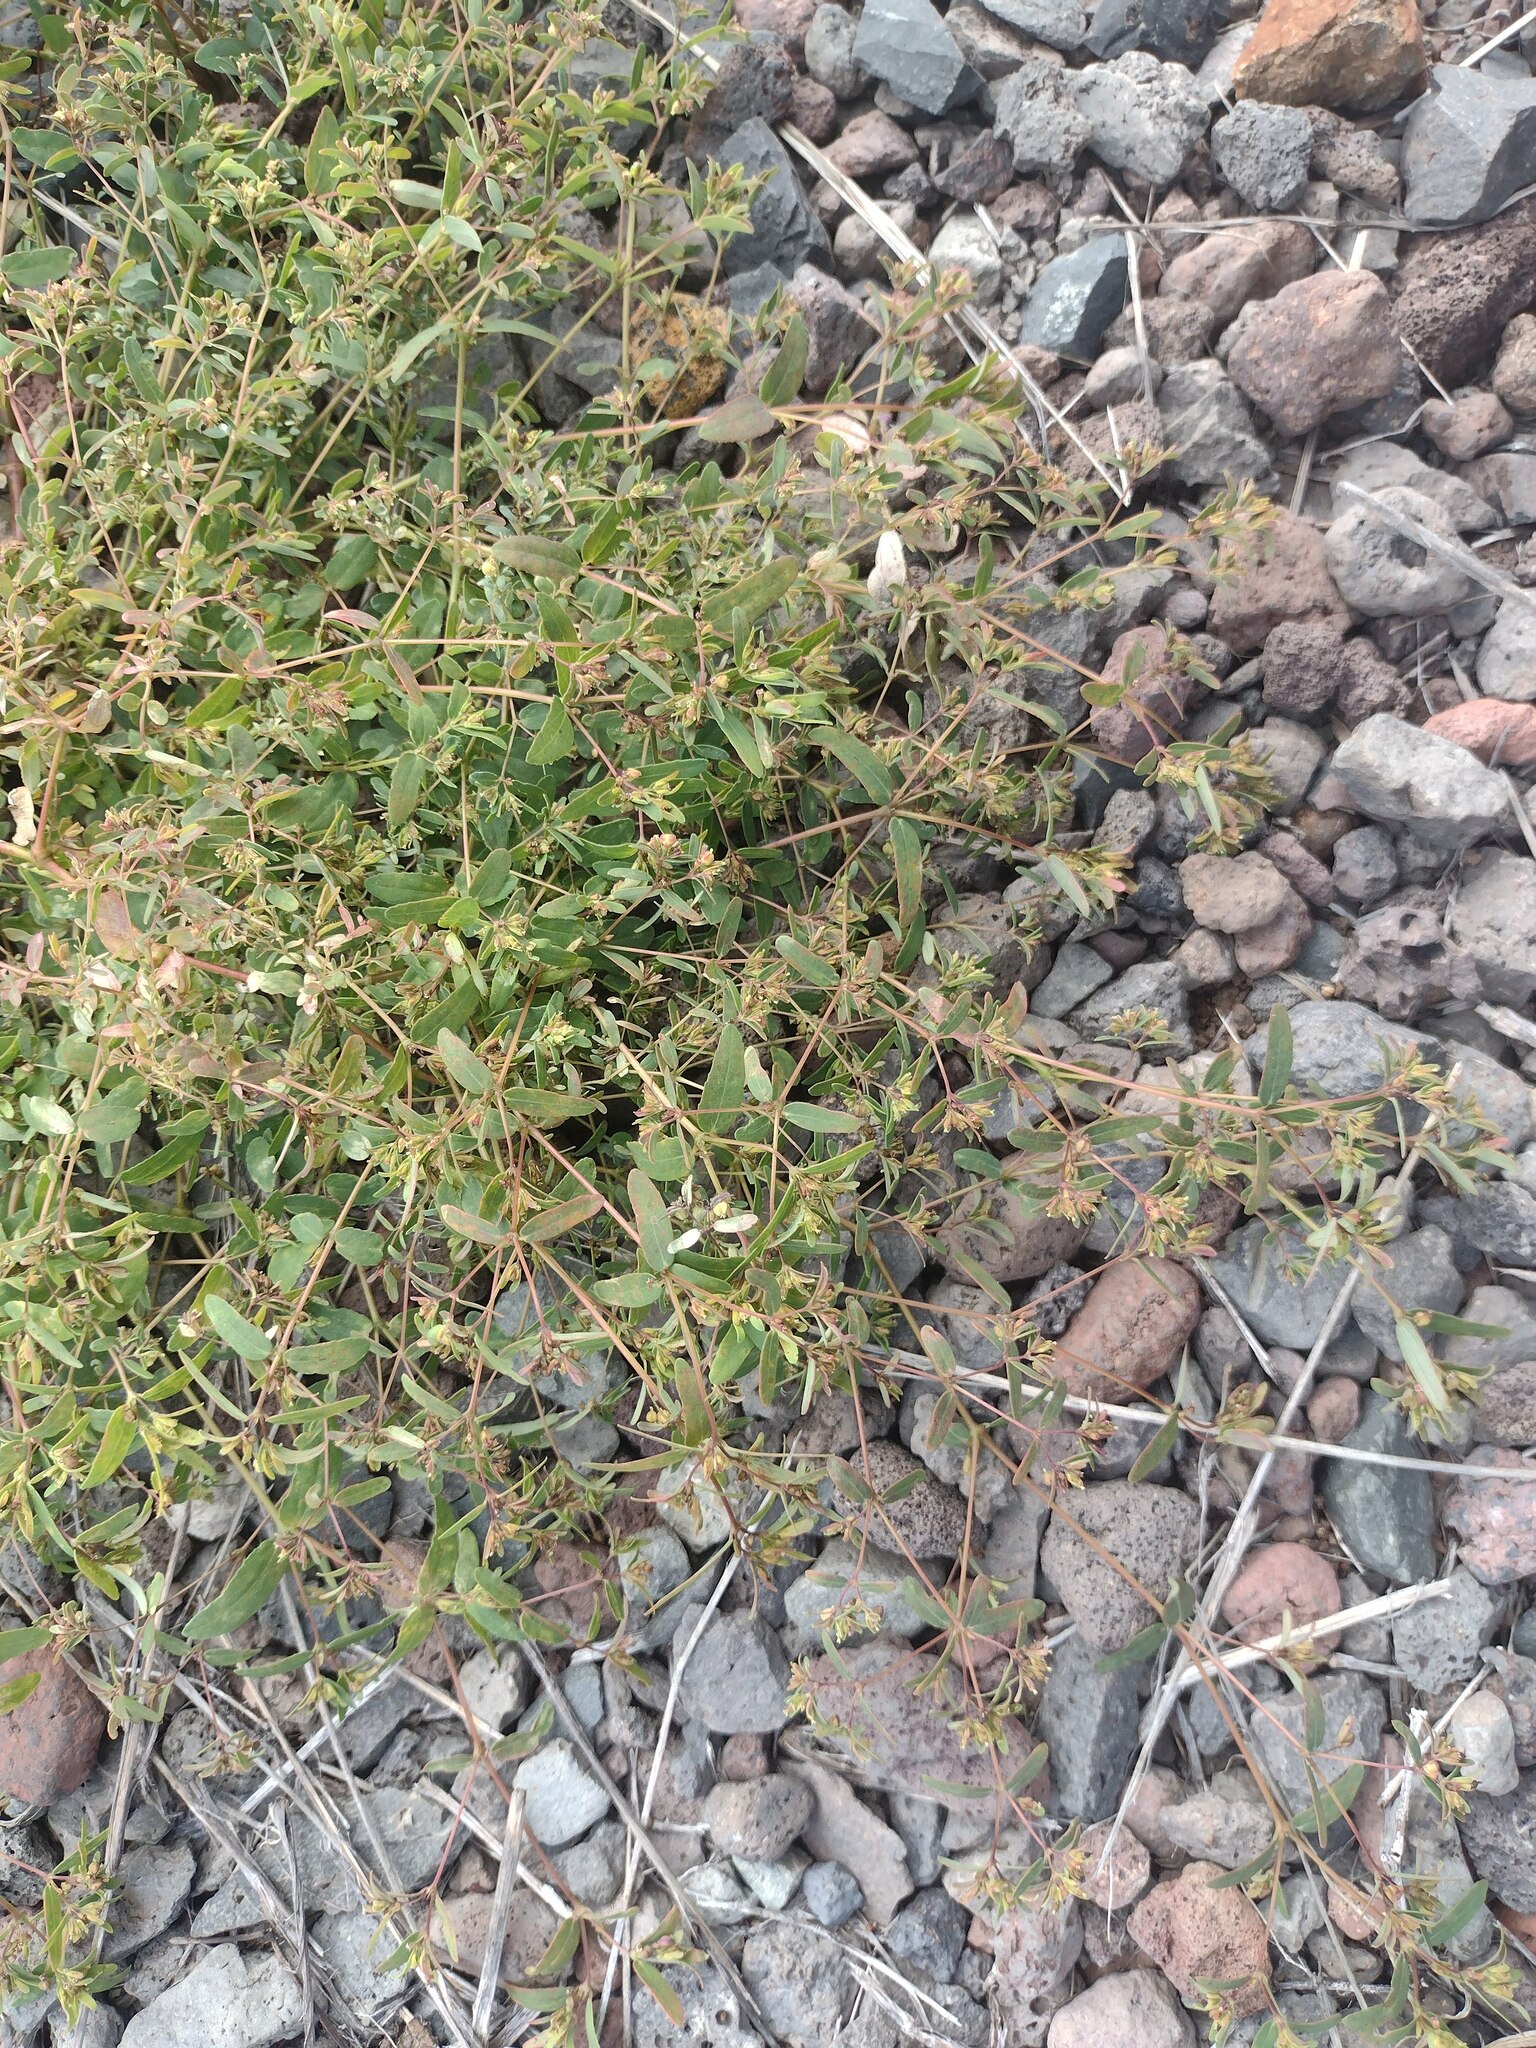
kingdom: Plantae
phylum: Tracheophyta
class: Magnoliopsida
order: Malpighiales
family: Euphorbiaceae
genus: Euphorbia
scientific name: Euphorbia hyssopifolia
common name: Hyssopleaf sandmat
